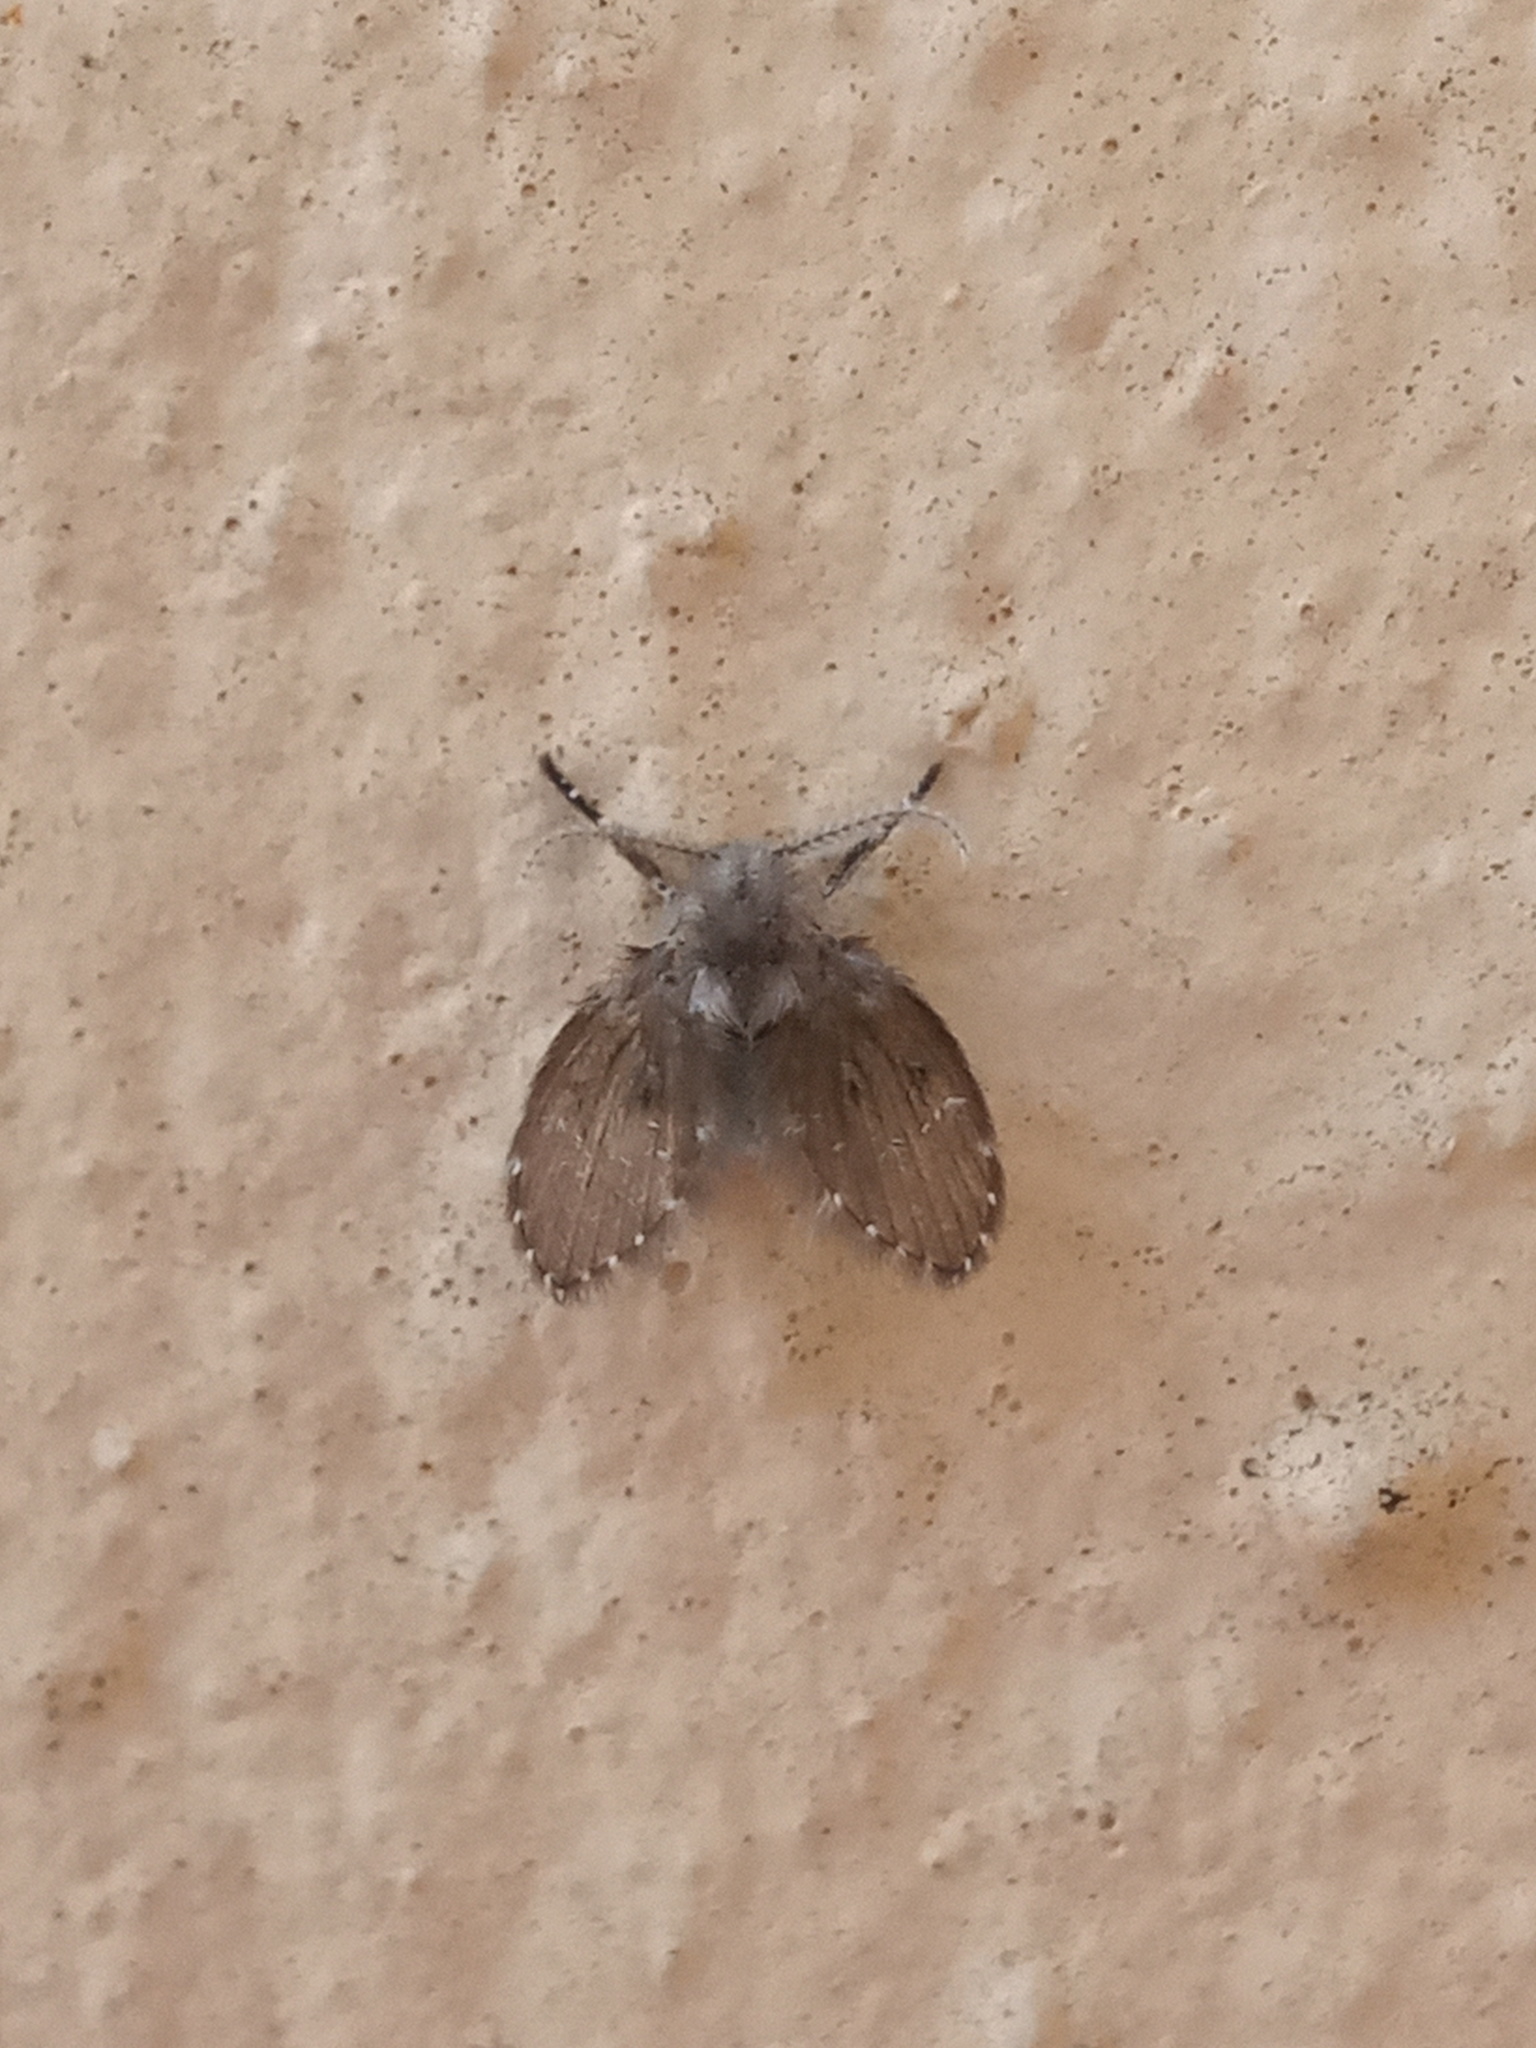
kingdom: Animalia
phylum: Arthropoda
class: Insecta
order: Diptera
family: Psychodidae
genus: Clogmia
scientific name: Clogmia albipunctatus
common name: White-spotted moth fly
